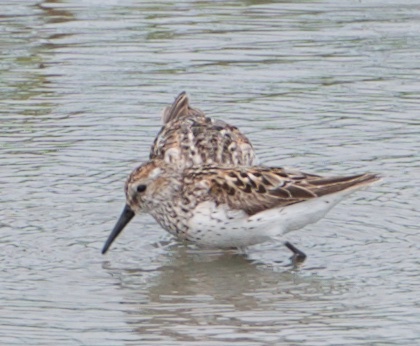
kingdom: Animalia
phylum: Chordata
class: Aves
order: Charadriiformes
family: Scolopacidae
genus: Calidris
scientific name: Calidris mauri
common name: Western sandpiper
